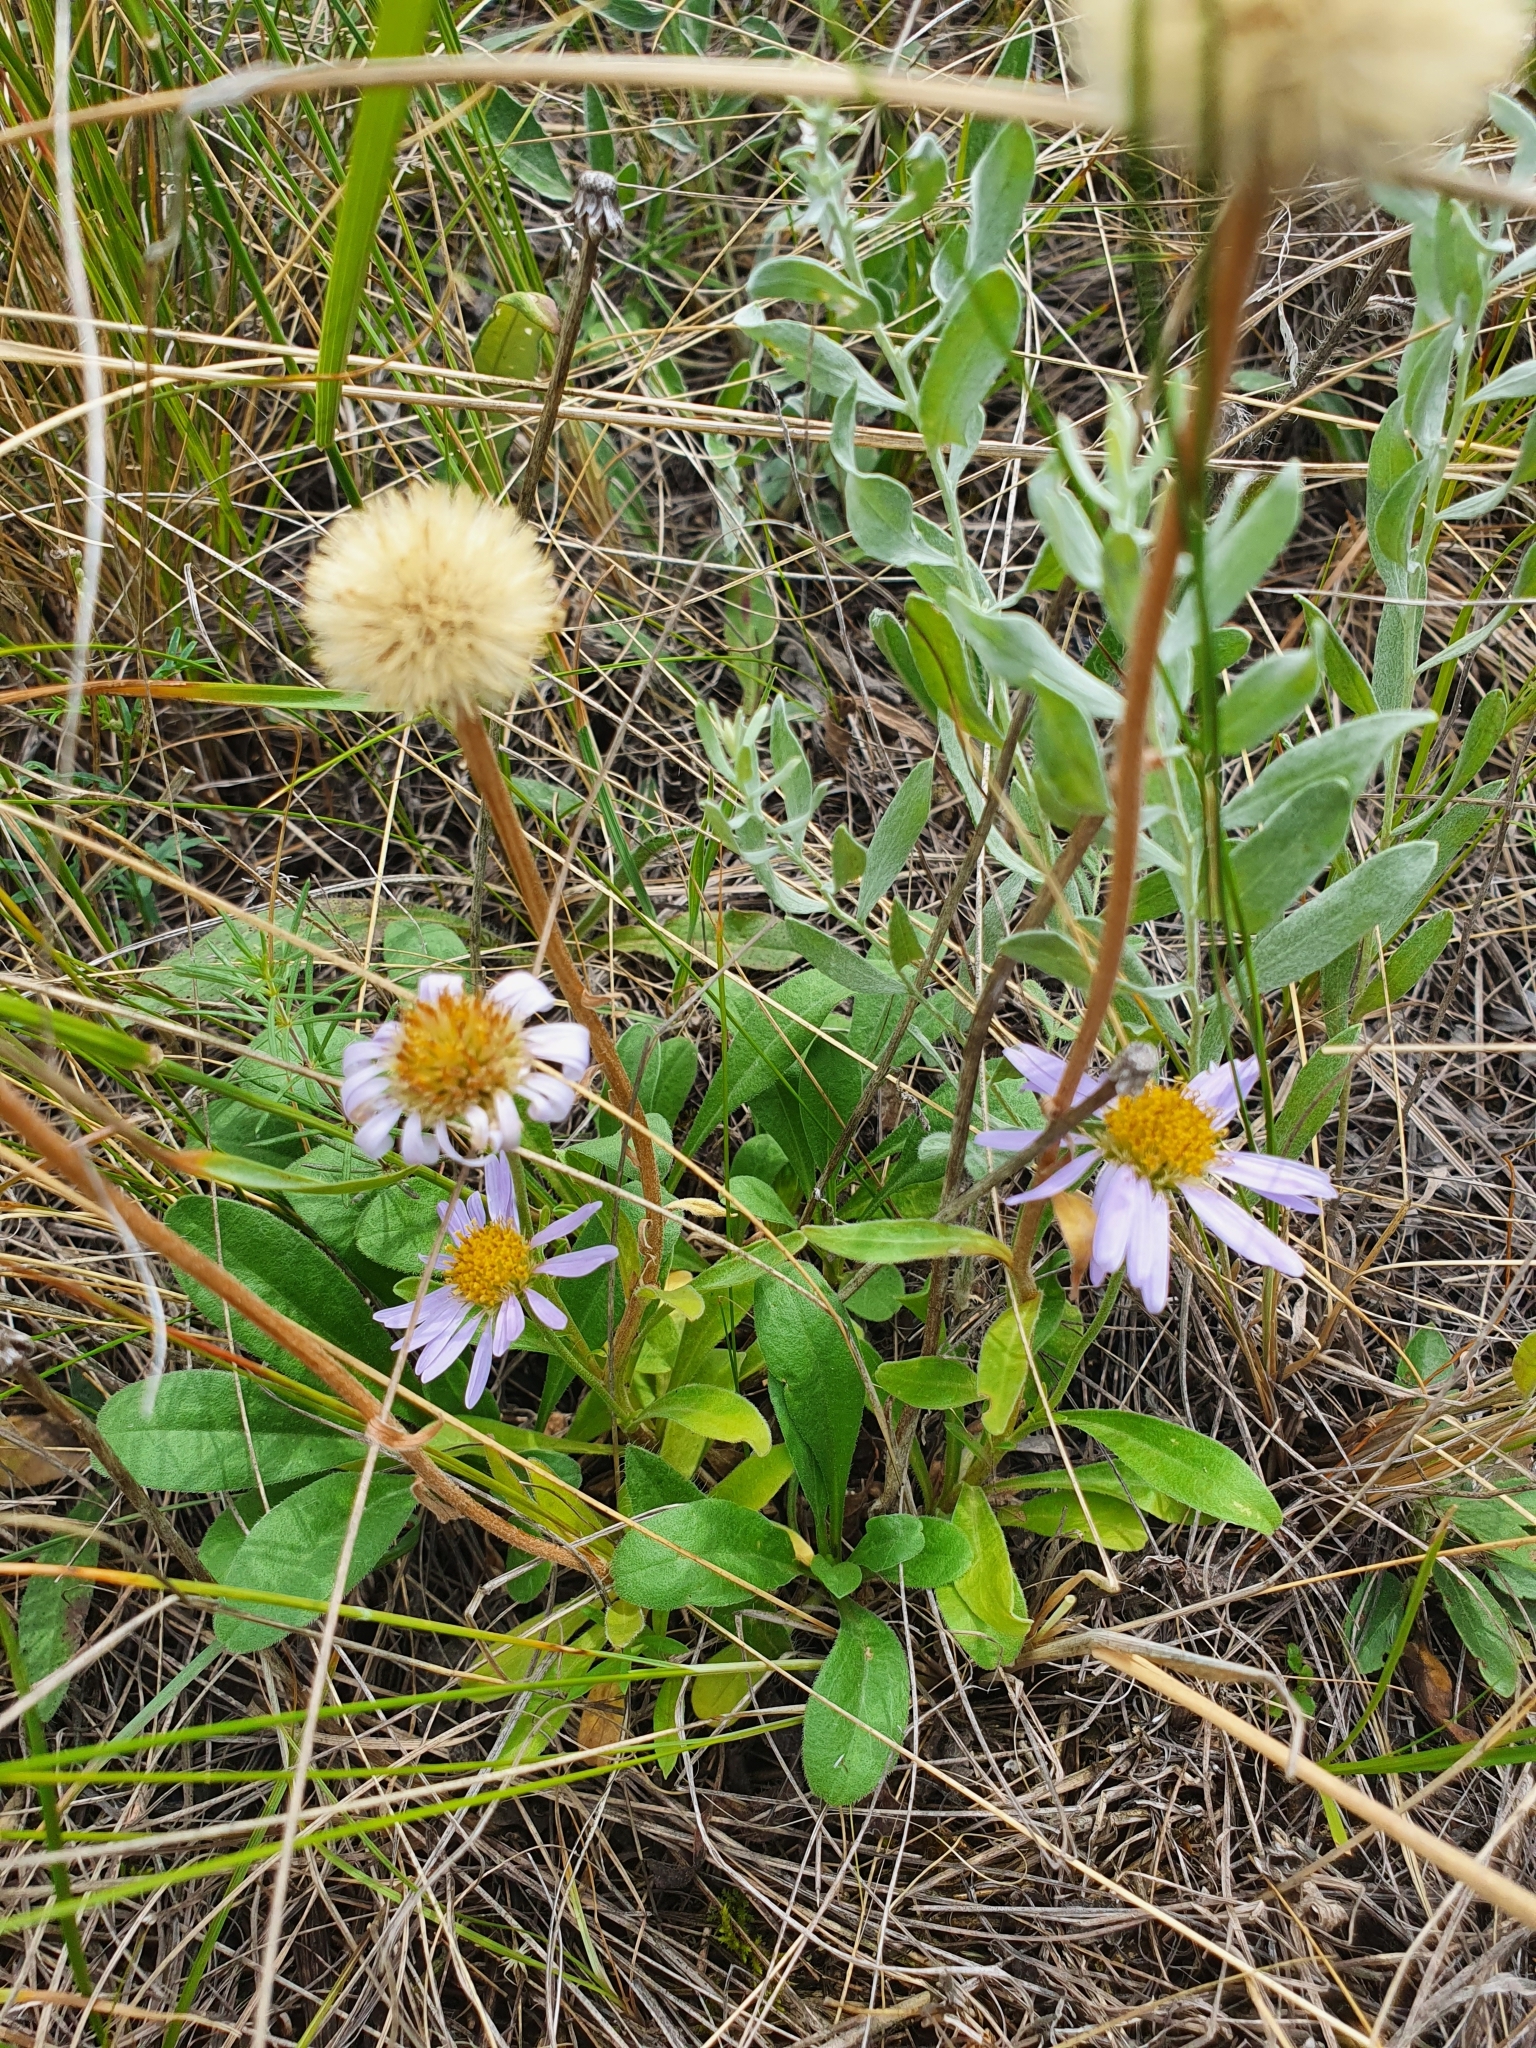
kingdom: Plantae
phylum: Tracheophyta
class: Magnoliopsida
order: Asterales
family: Asteraceae
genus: Aster
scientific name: Aster alpinus
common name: Alpine aster
